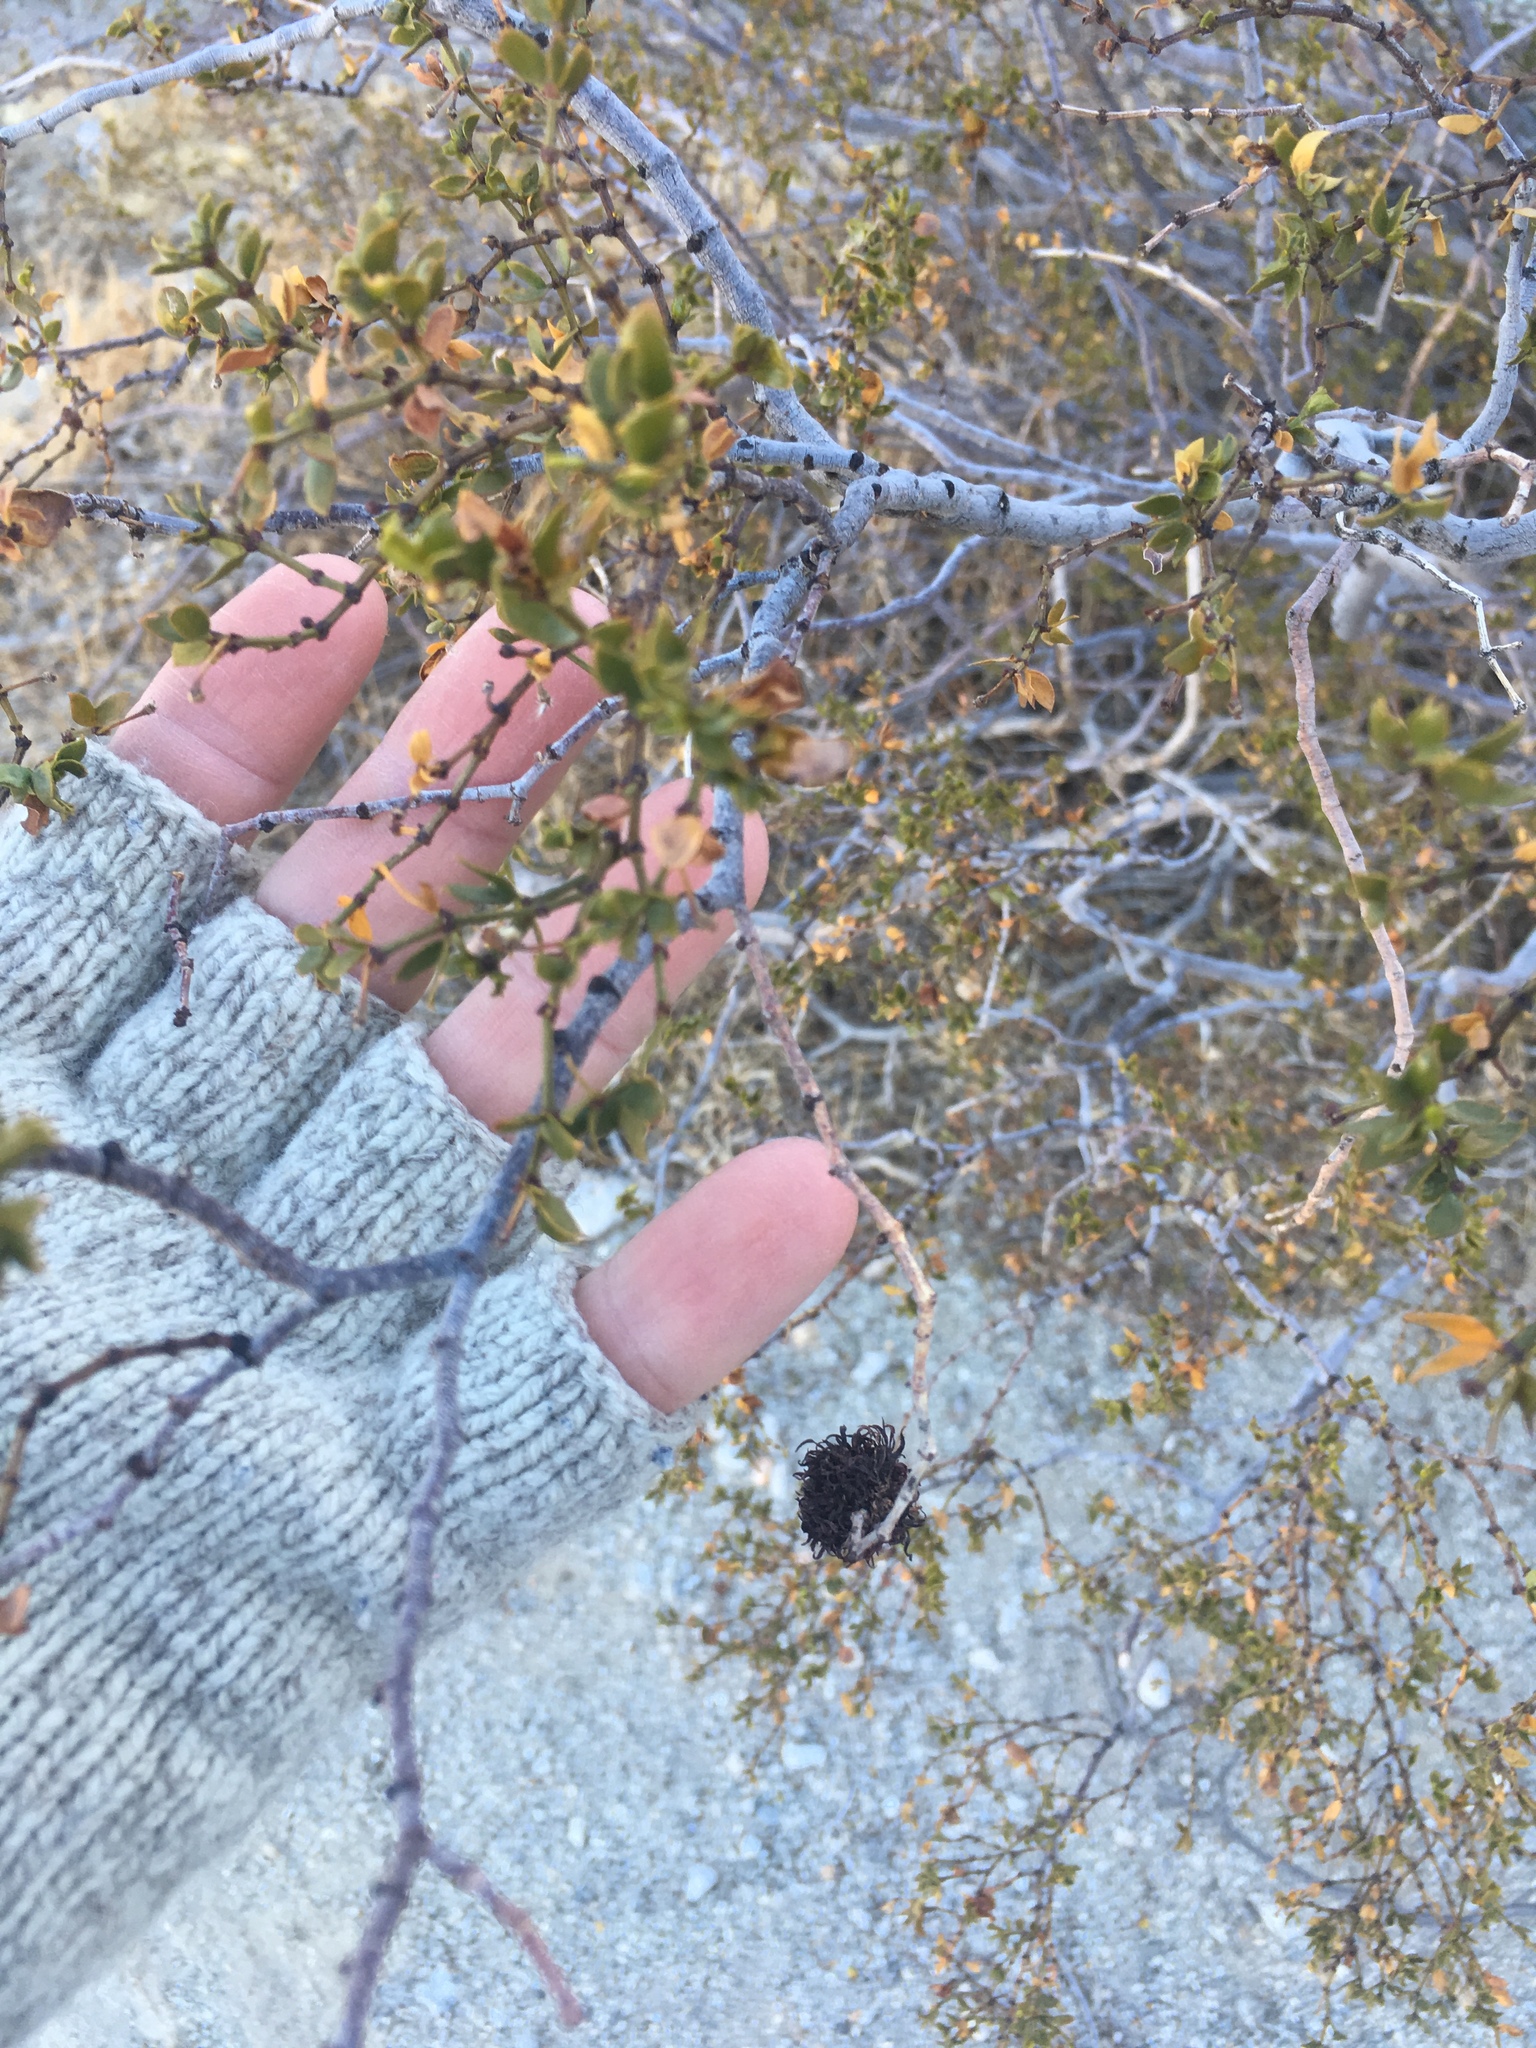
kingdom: Animalia
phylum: Arthropoda
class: Insecta
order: Diptera
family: Cecidomyiidae
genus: Asphondylia
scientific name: Asphondylia auripila
